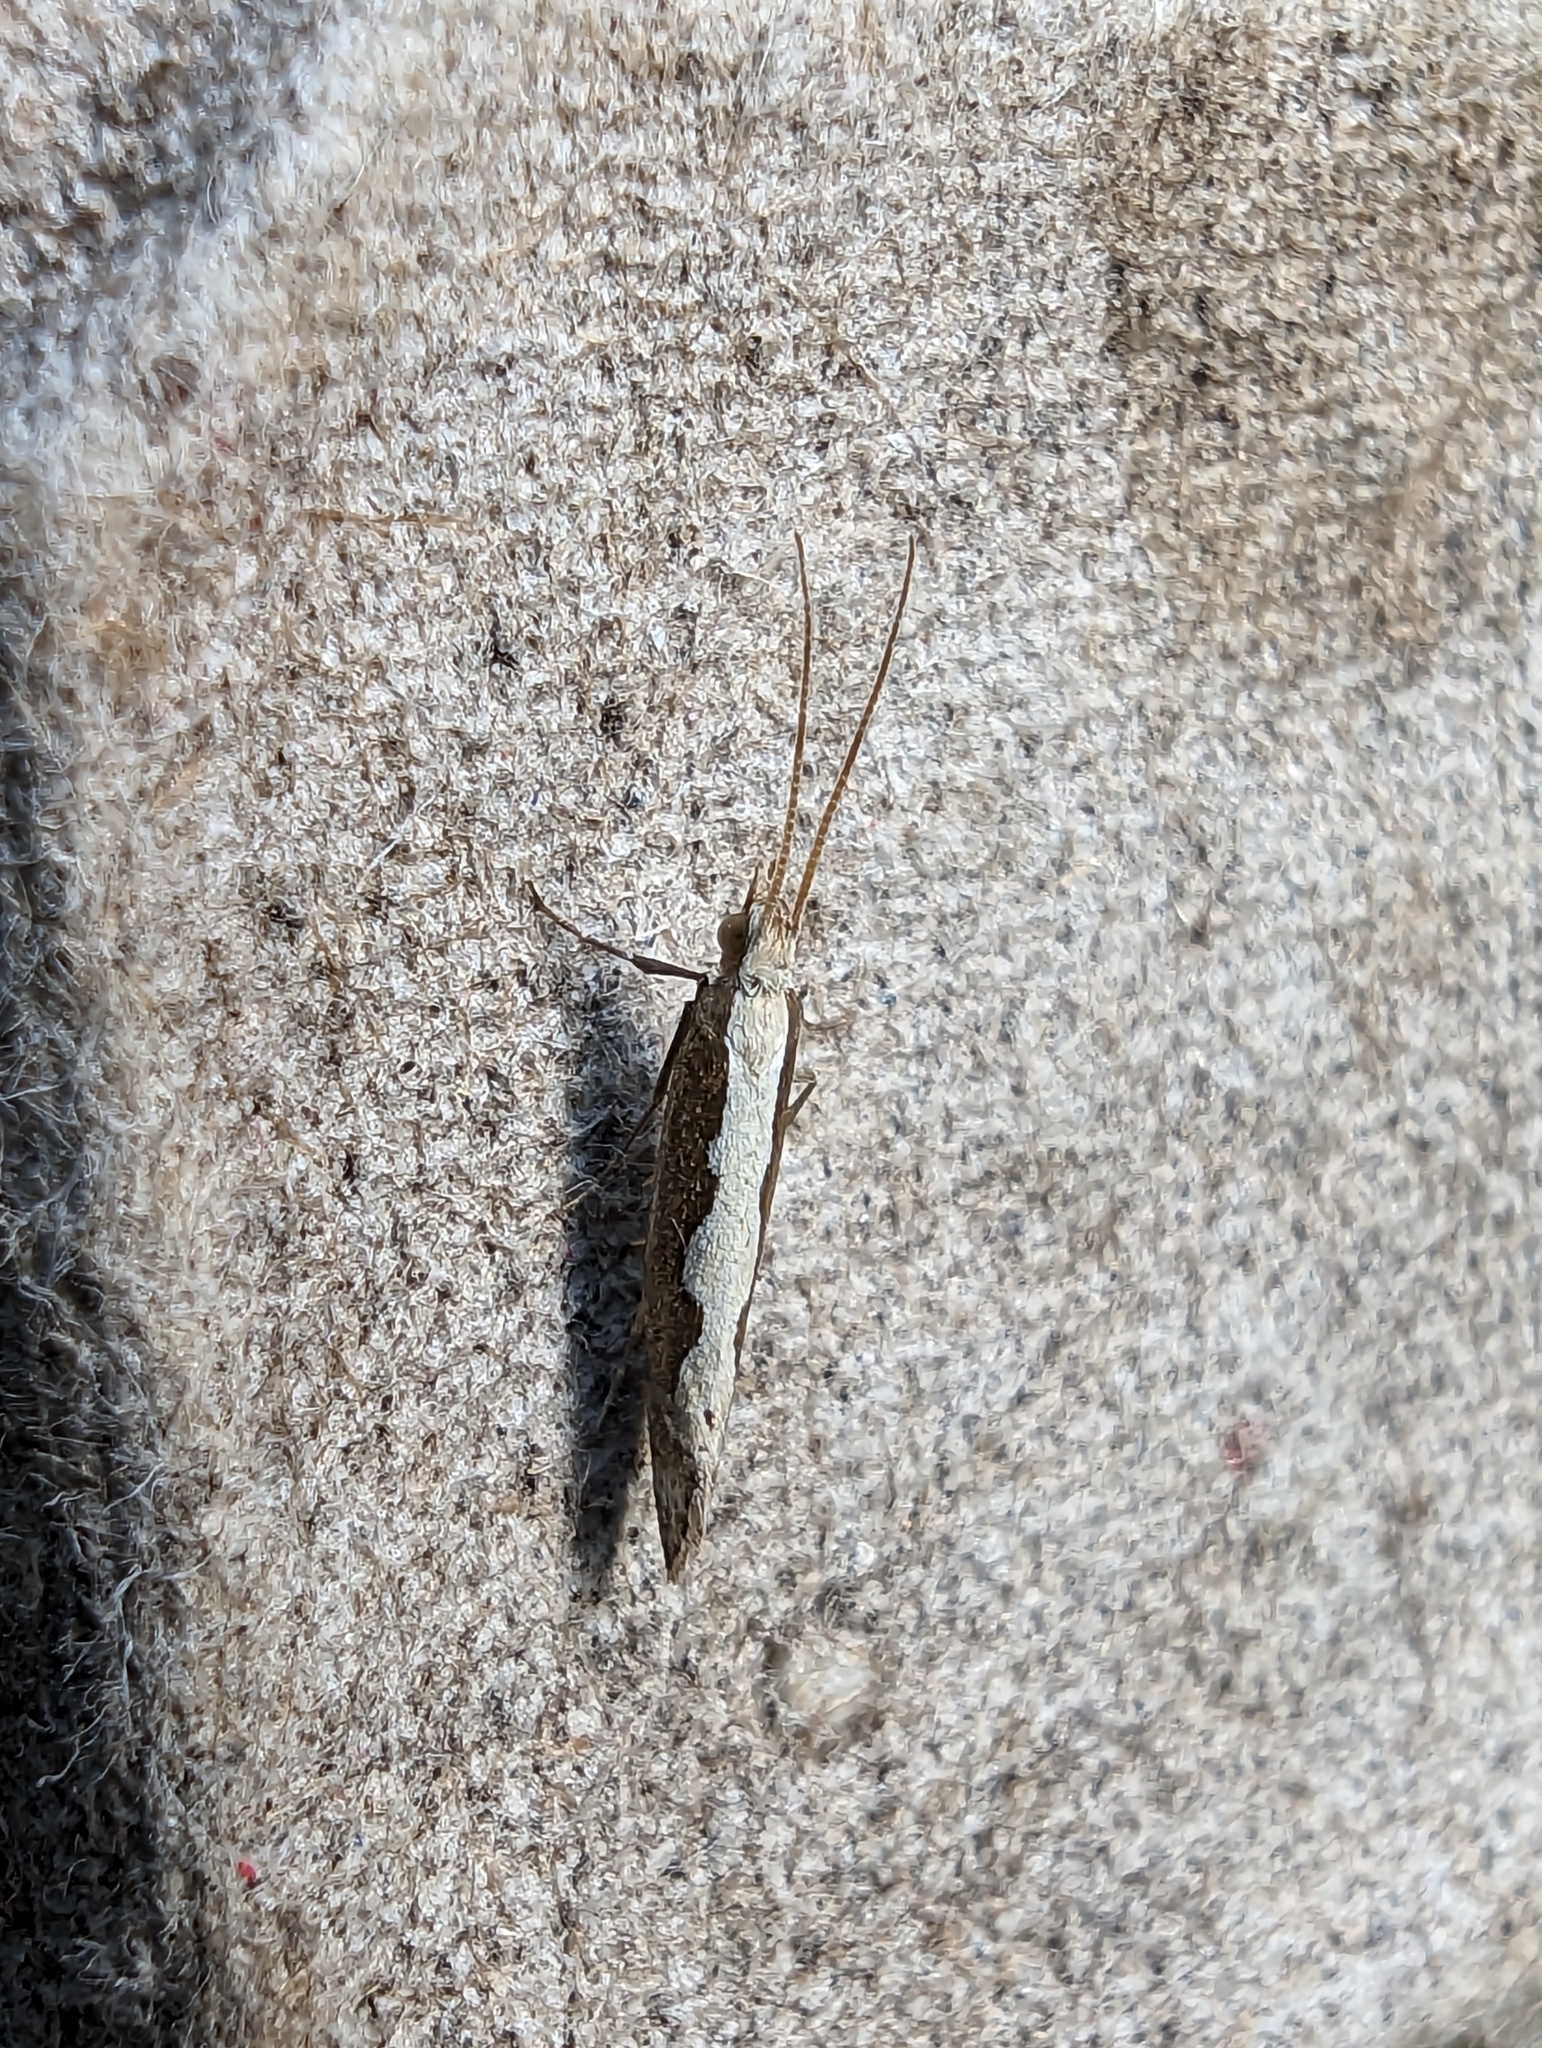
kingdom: Animalia
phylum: Arthropoda
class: Insecta
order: Lepidoptera
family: Plutellidae
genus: Plutella
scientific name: Plutella xylostella
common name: Diamond-back moth
